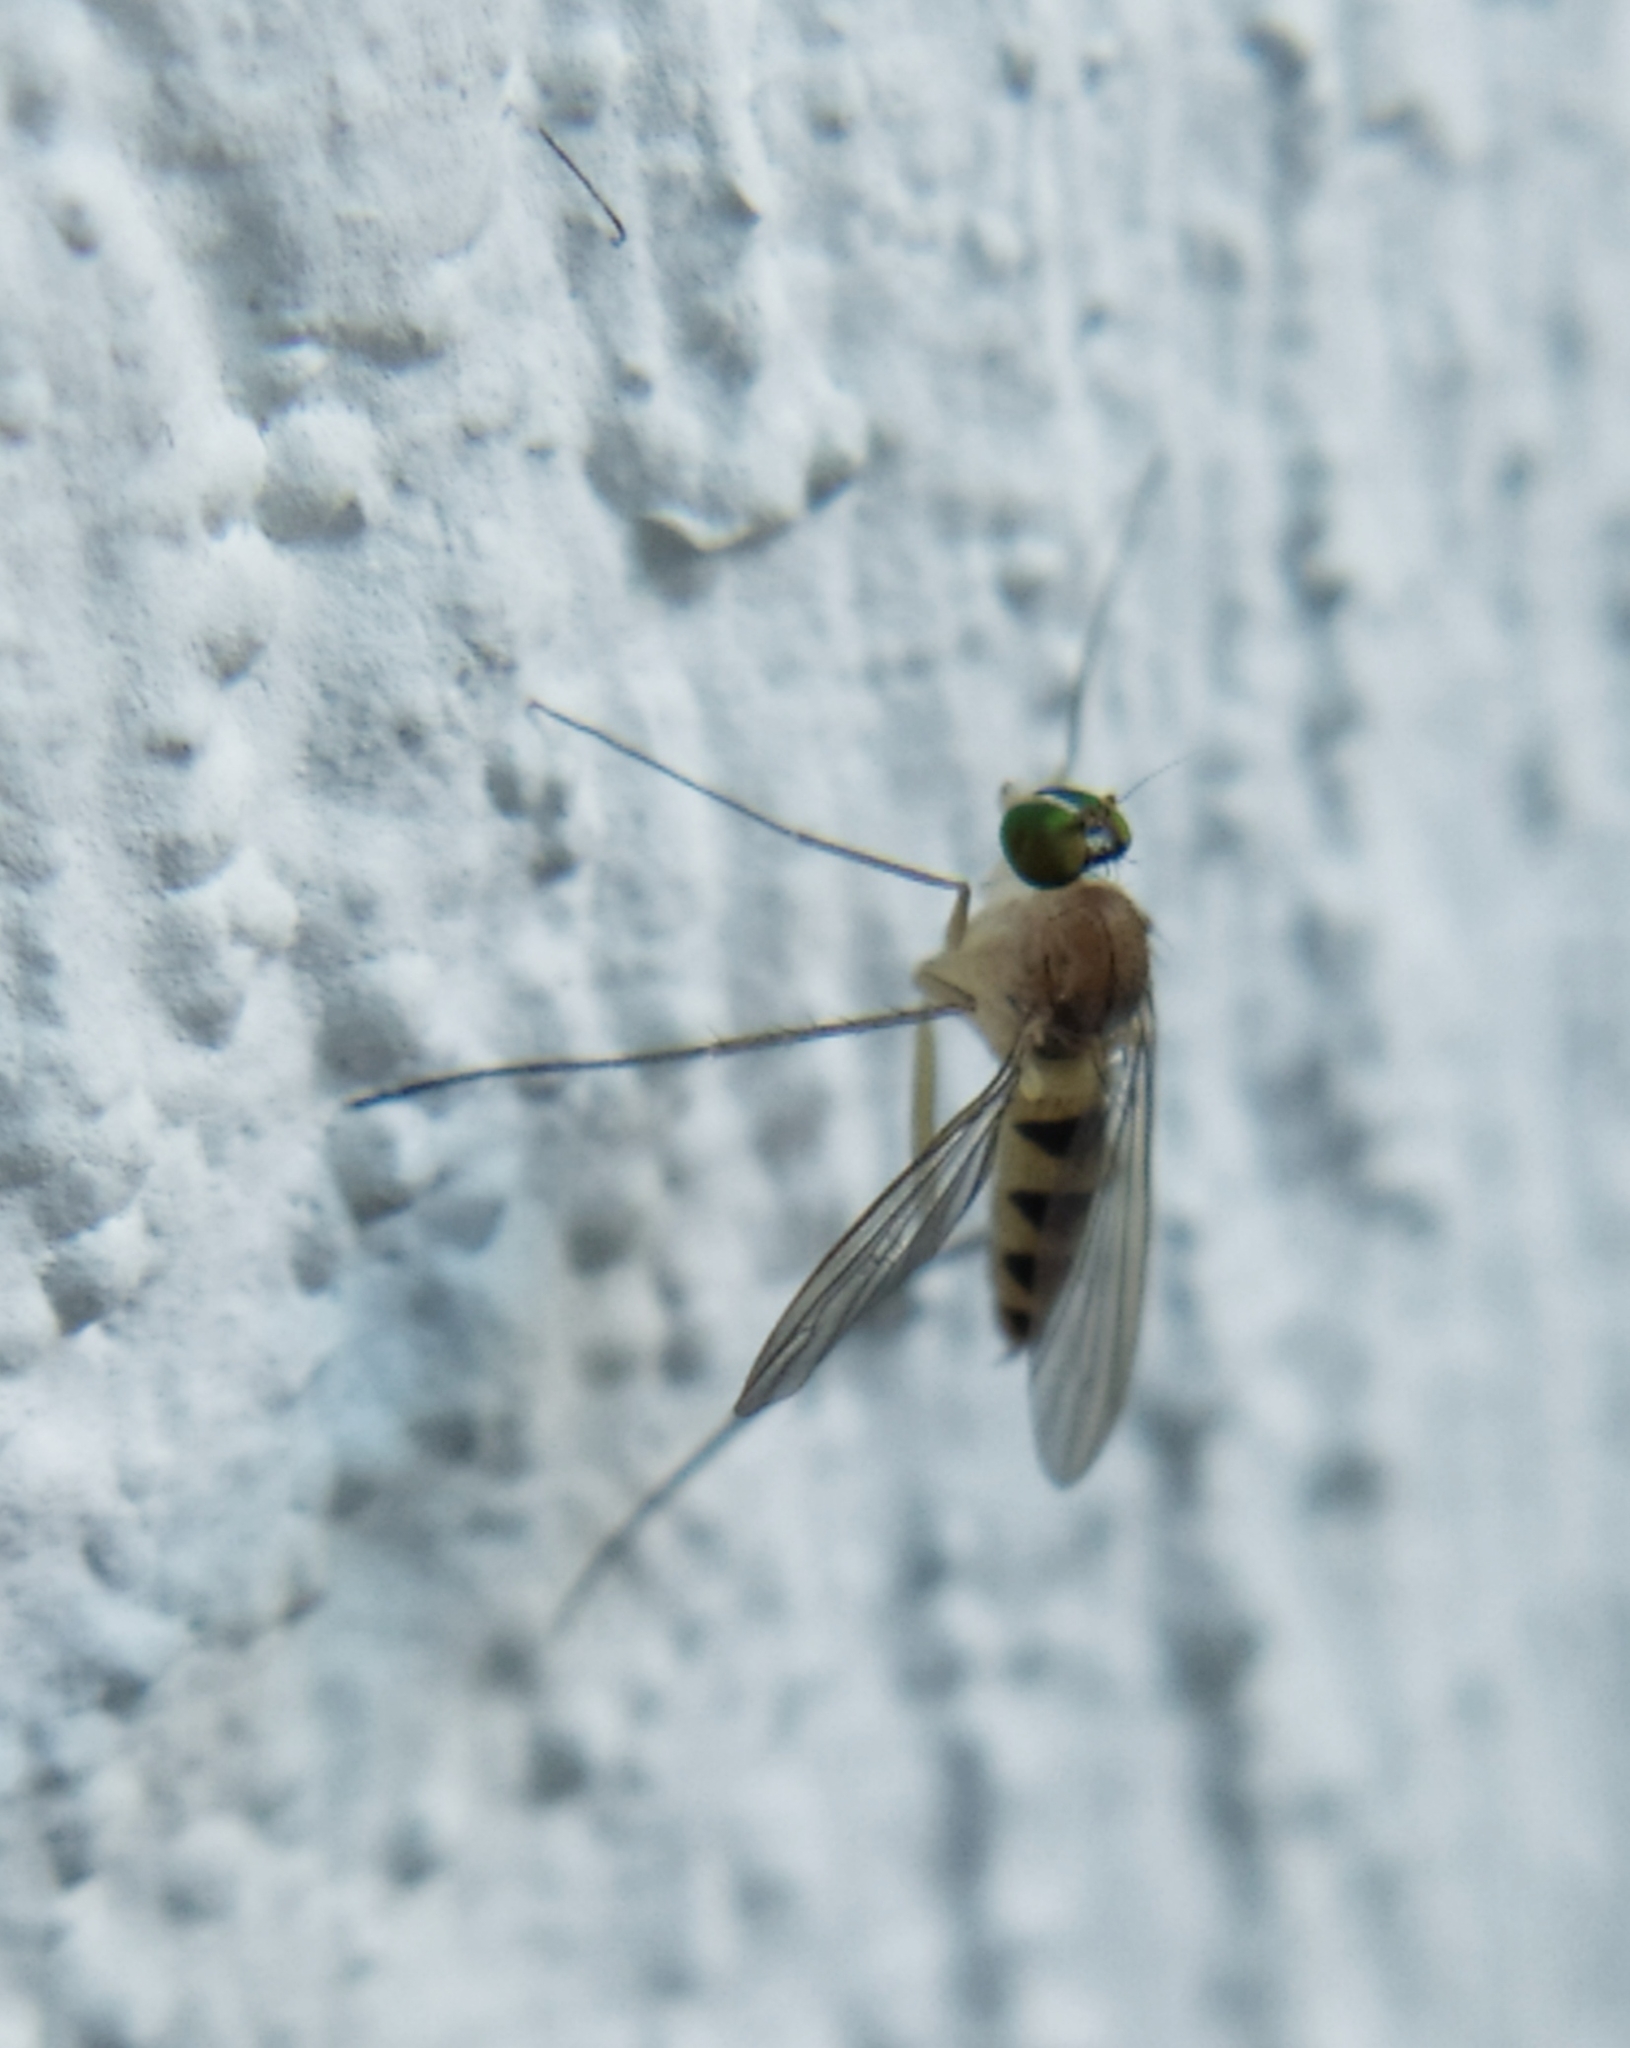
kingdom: Animalia
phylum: Arthropoda
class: Insecta
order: Diptera
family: Dolichopodidae
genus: Neurigona
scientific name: Neurigona quadrifasciata
